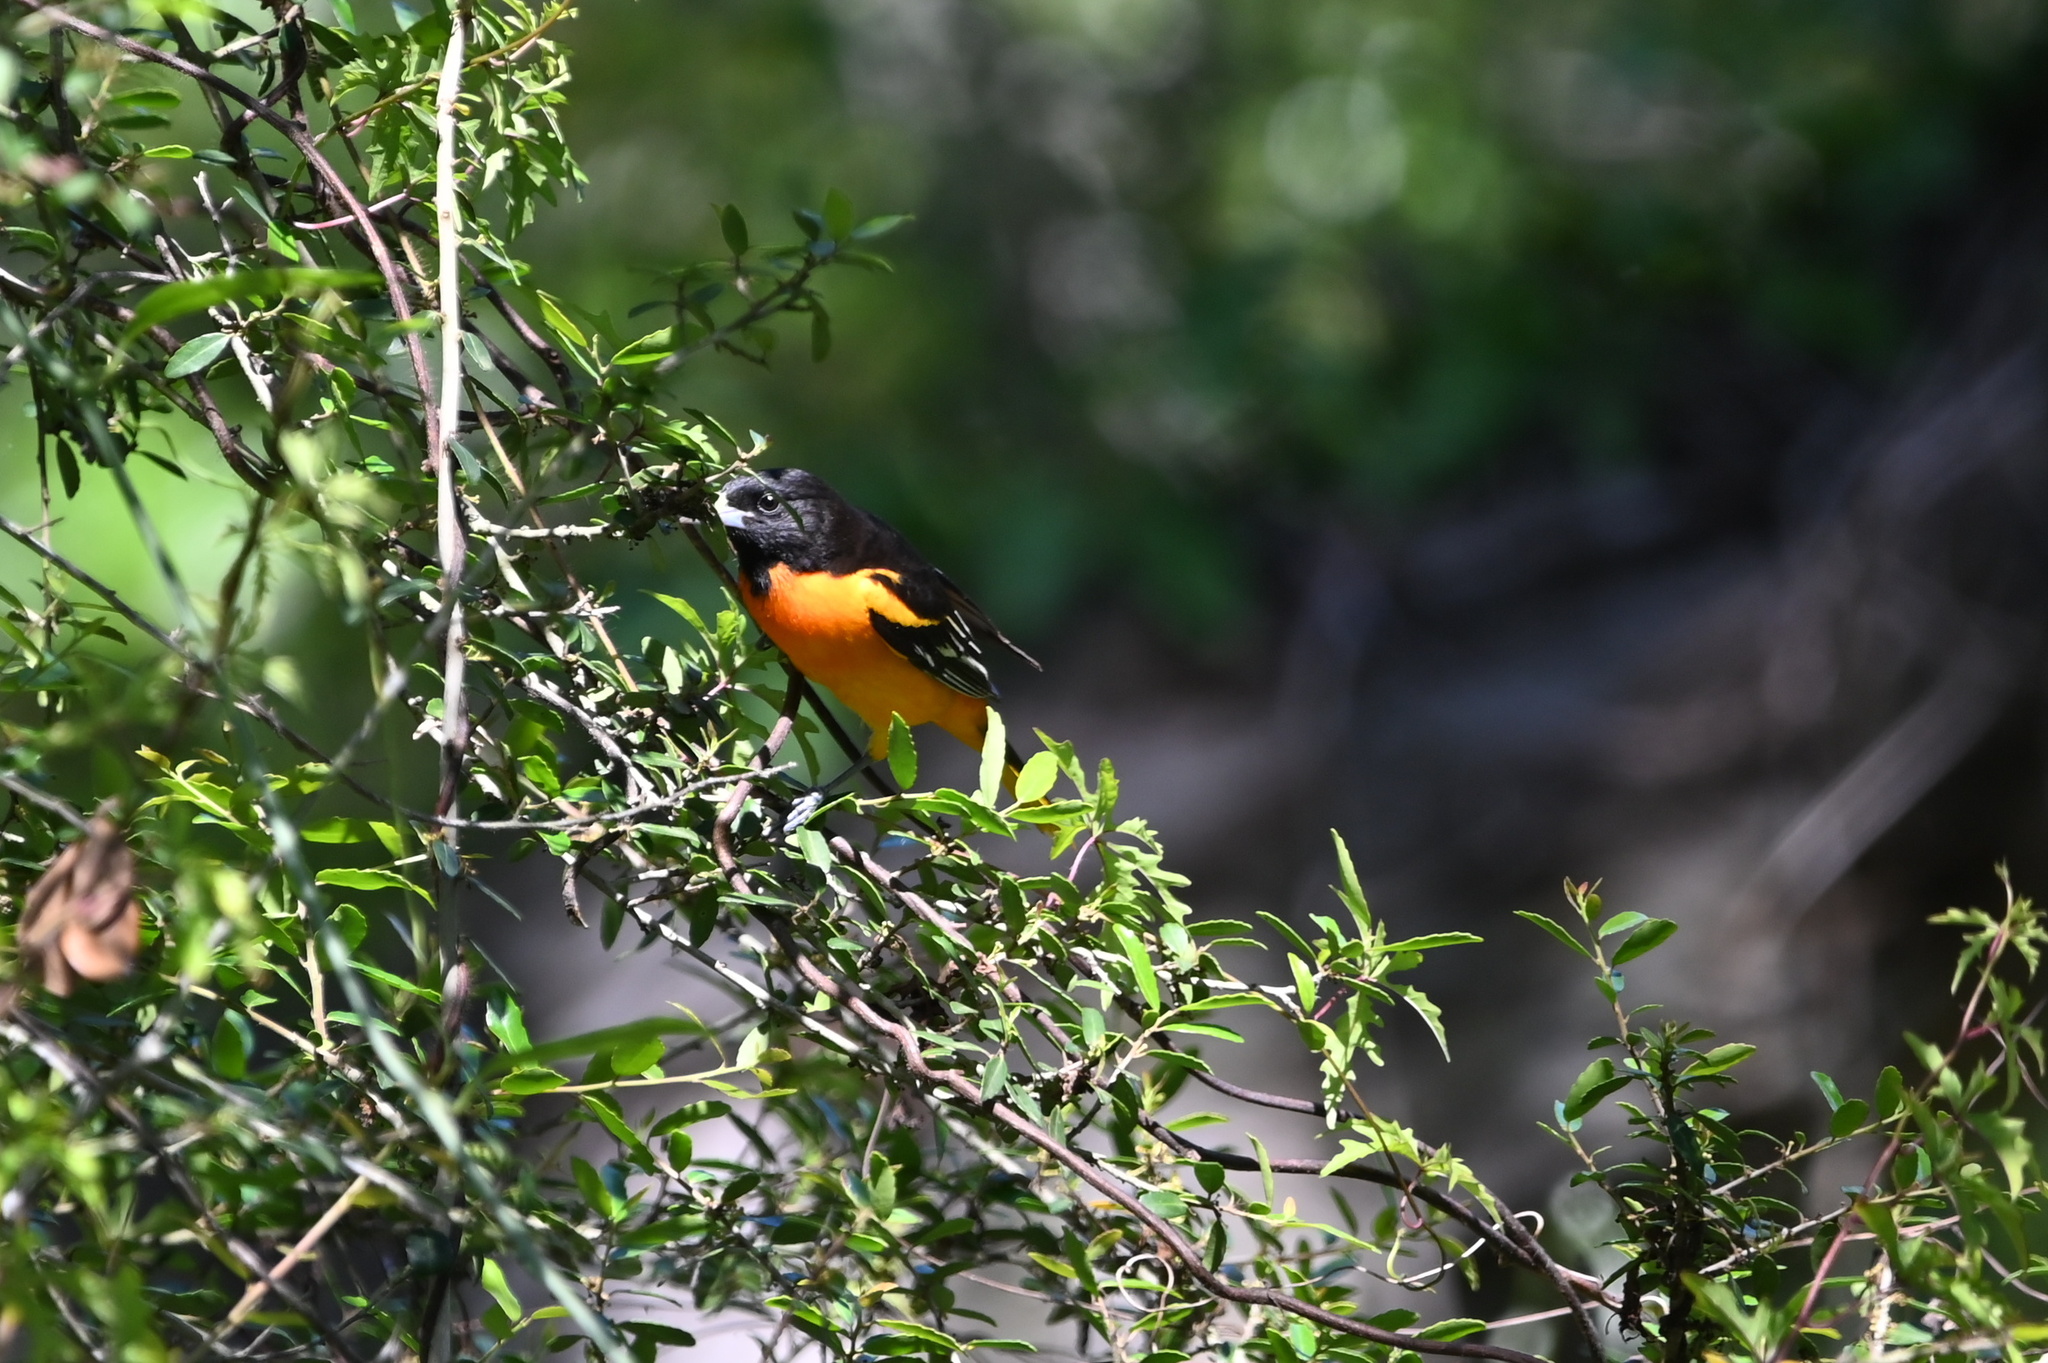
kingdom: Animalia
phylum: Chordata
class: Aves
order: Passeriformes
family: Icteridae
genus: Icterus
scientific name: Icterus galbula
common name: Baltimore oriole
